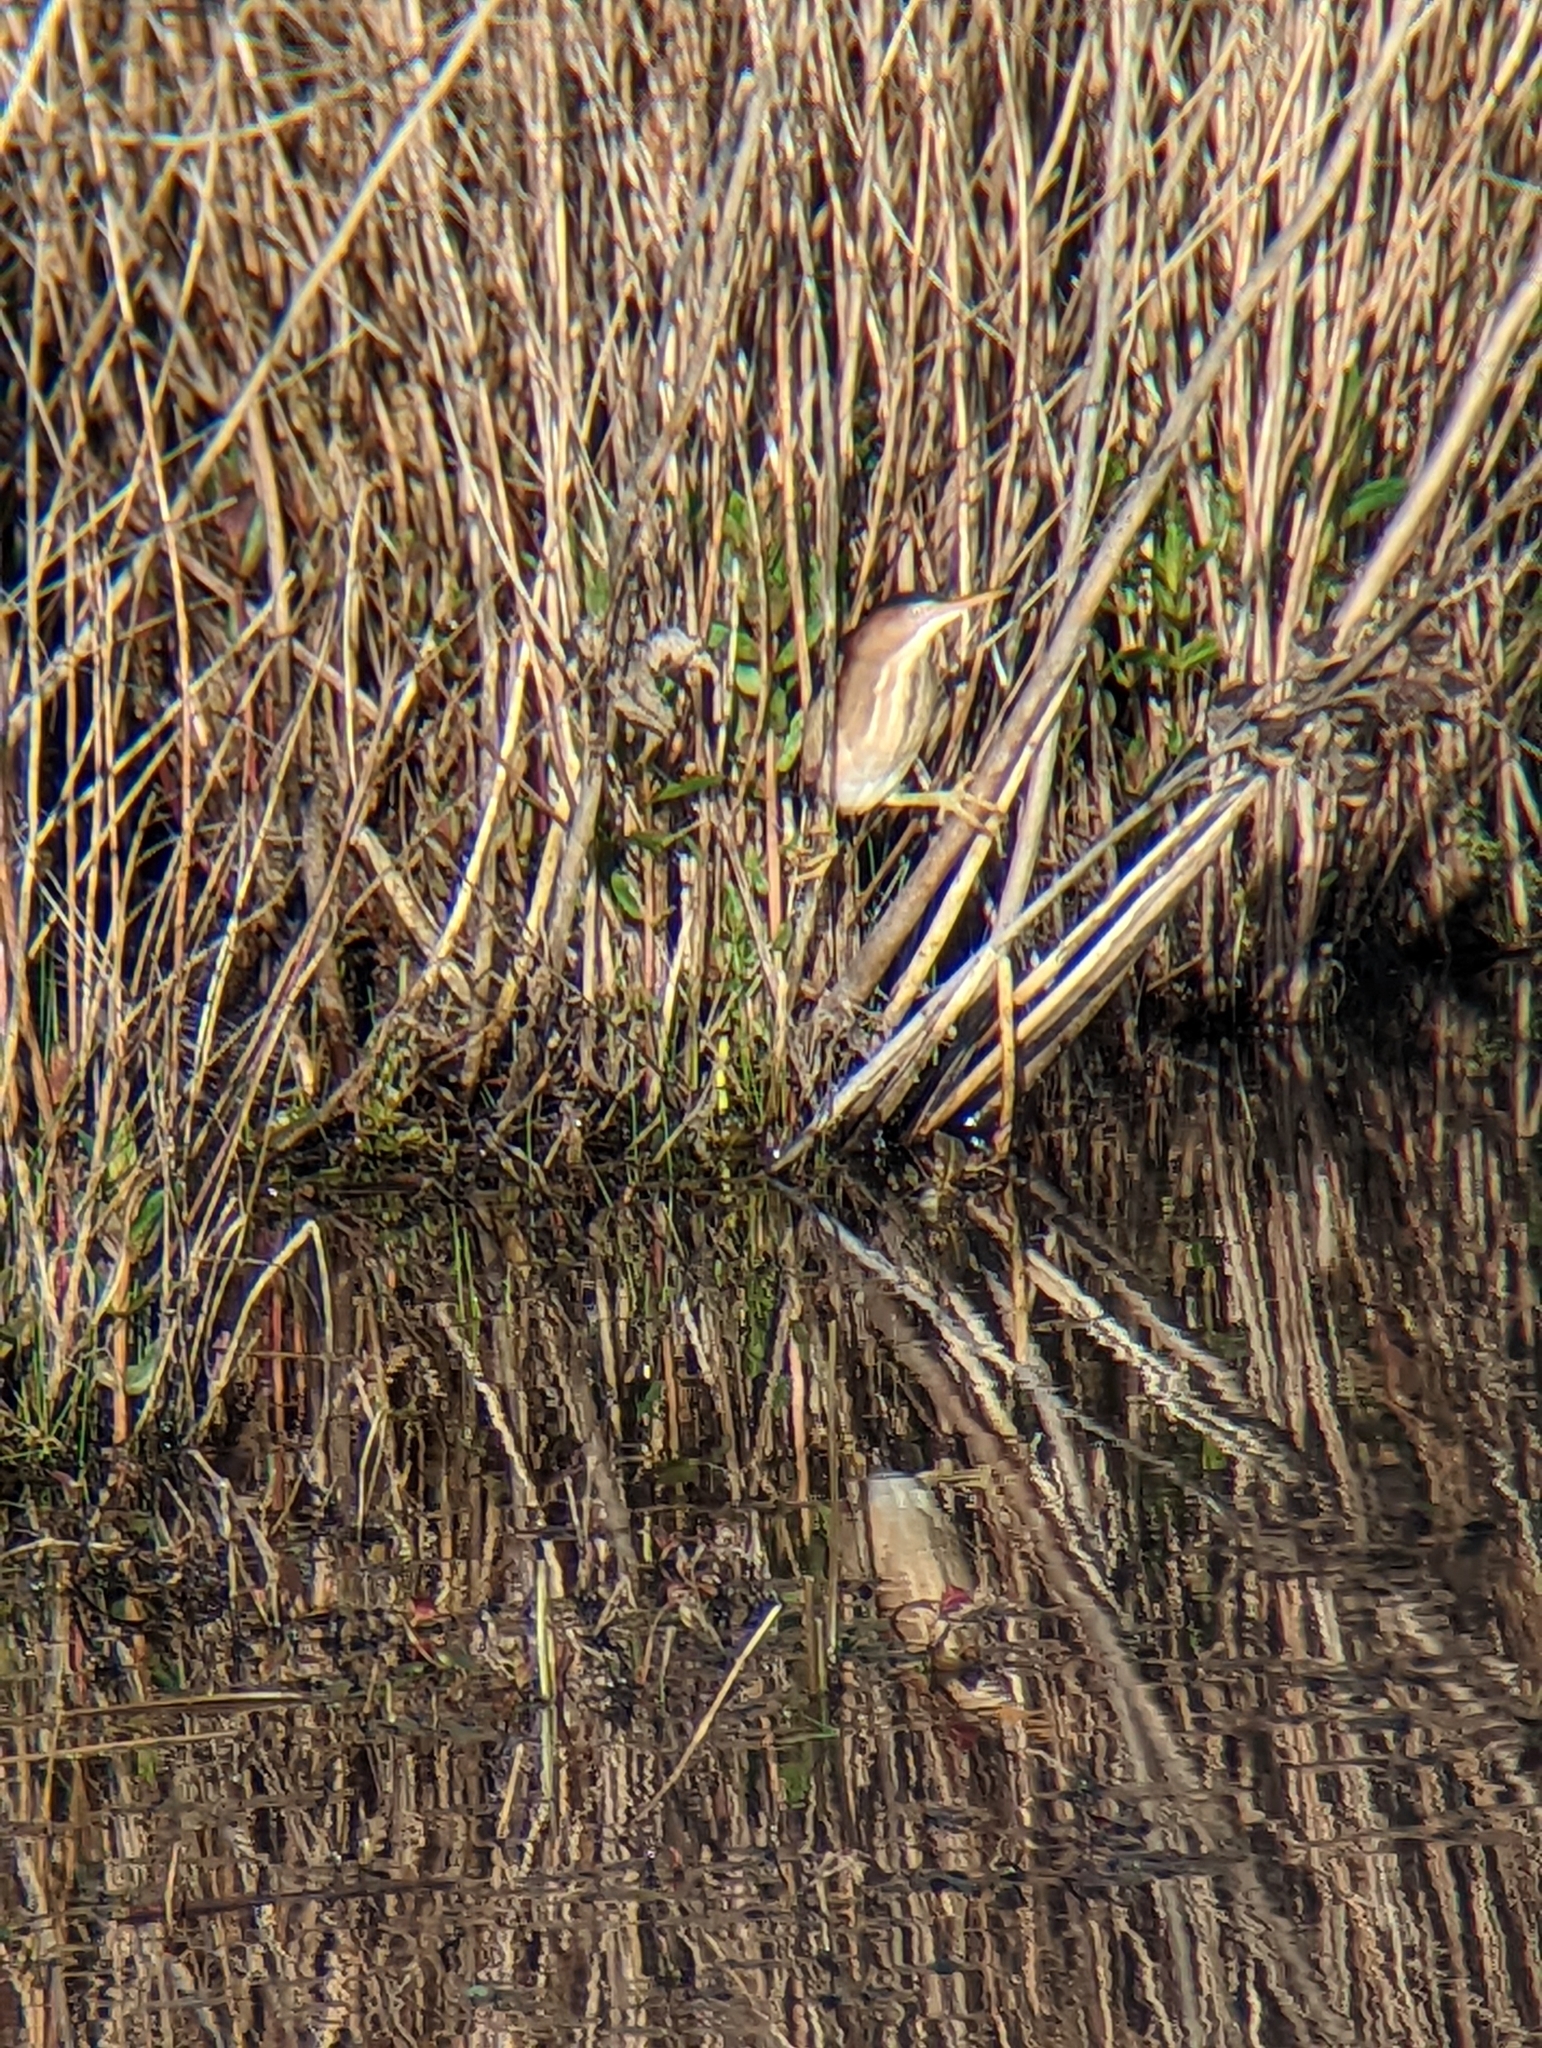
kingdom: Animalia
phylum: Chordata
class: Aves
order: Pelecaniformes
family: Ardeidae
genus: Ixobrychus
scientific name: Ixobrychus exilis
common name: Least bittern
